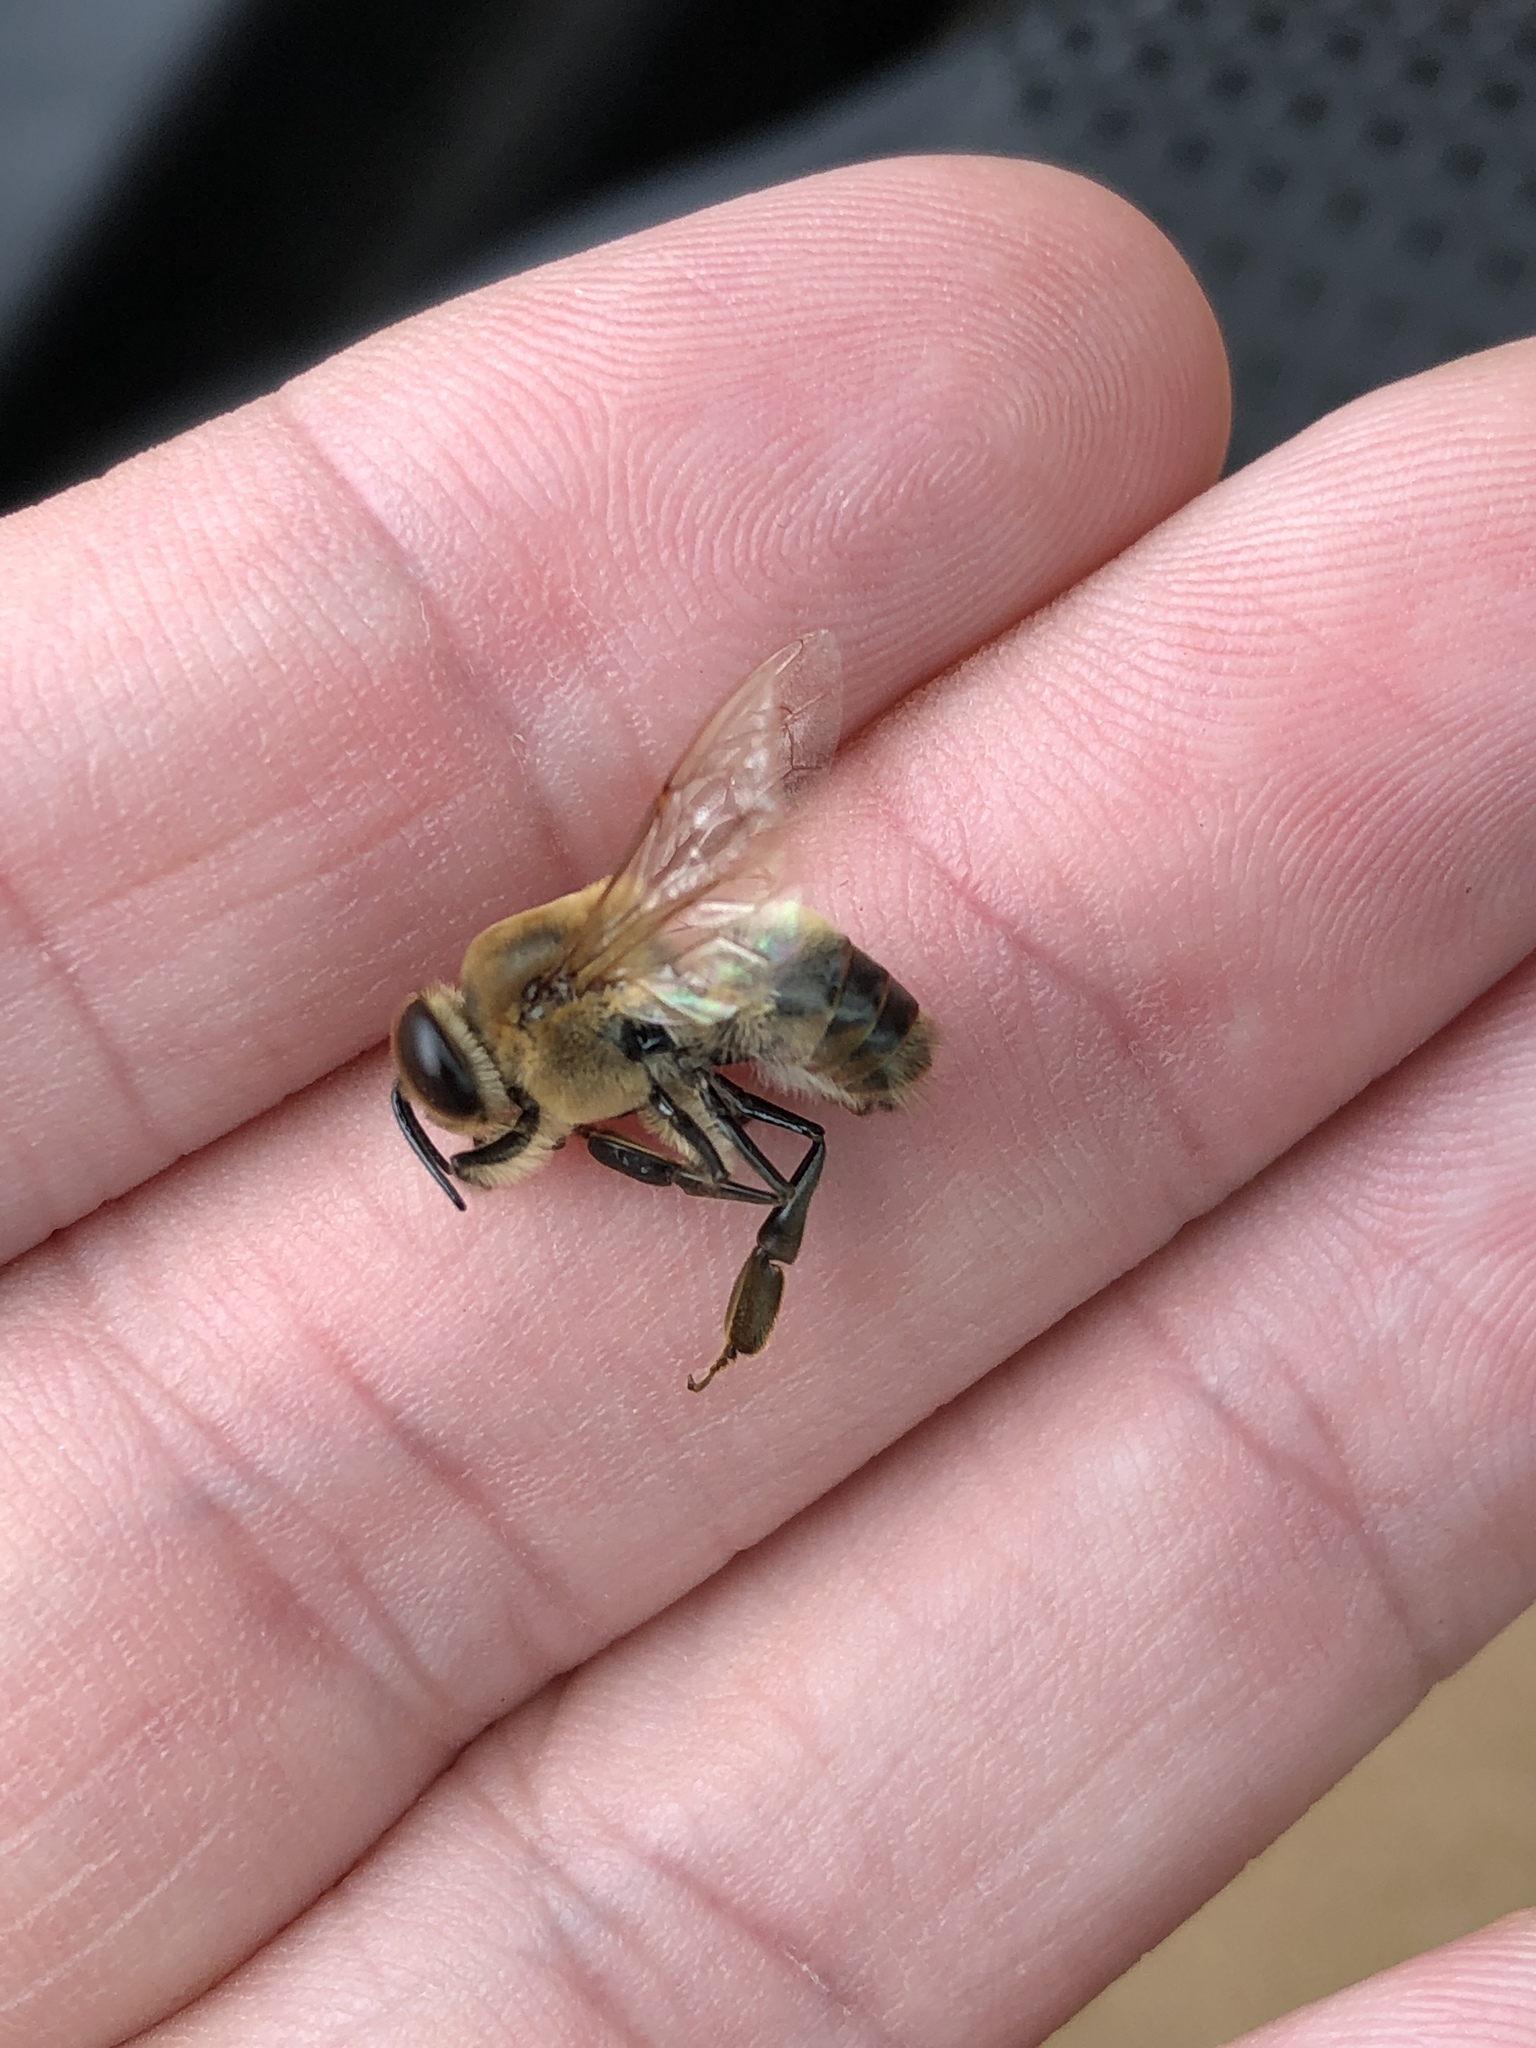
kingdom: Animalia
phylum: Arthropoda
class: Insecta
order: Hymenoptera
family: Apidae
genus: Apis
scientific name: Apis mellifera
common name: Honey bee
